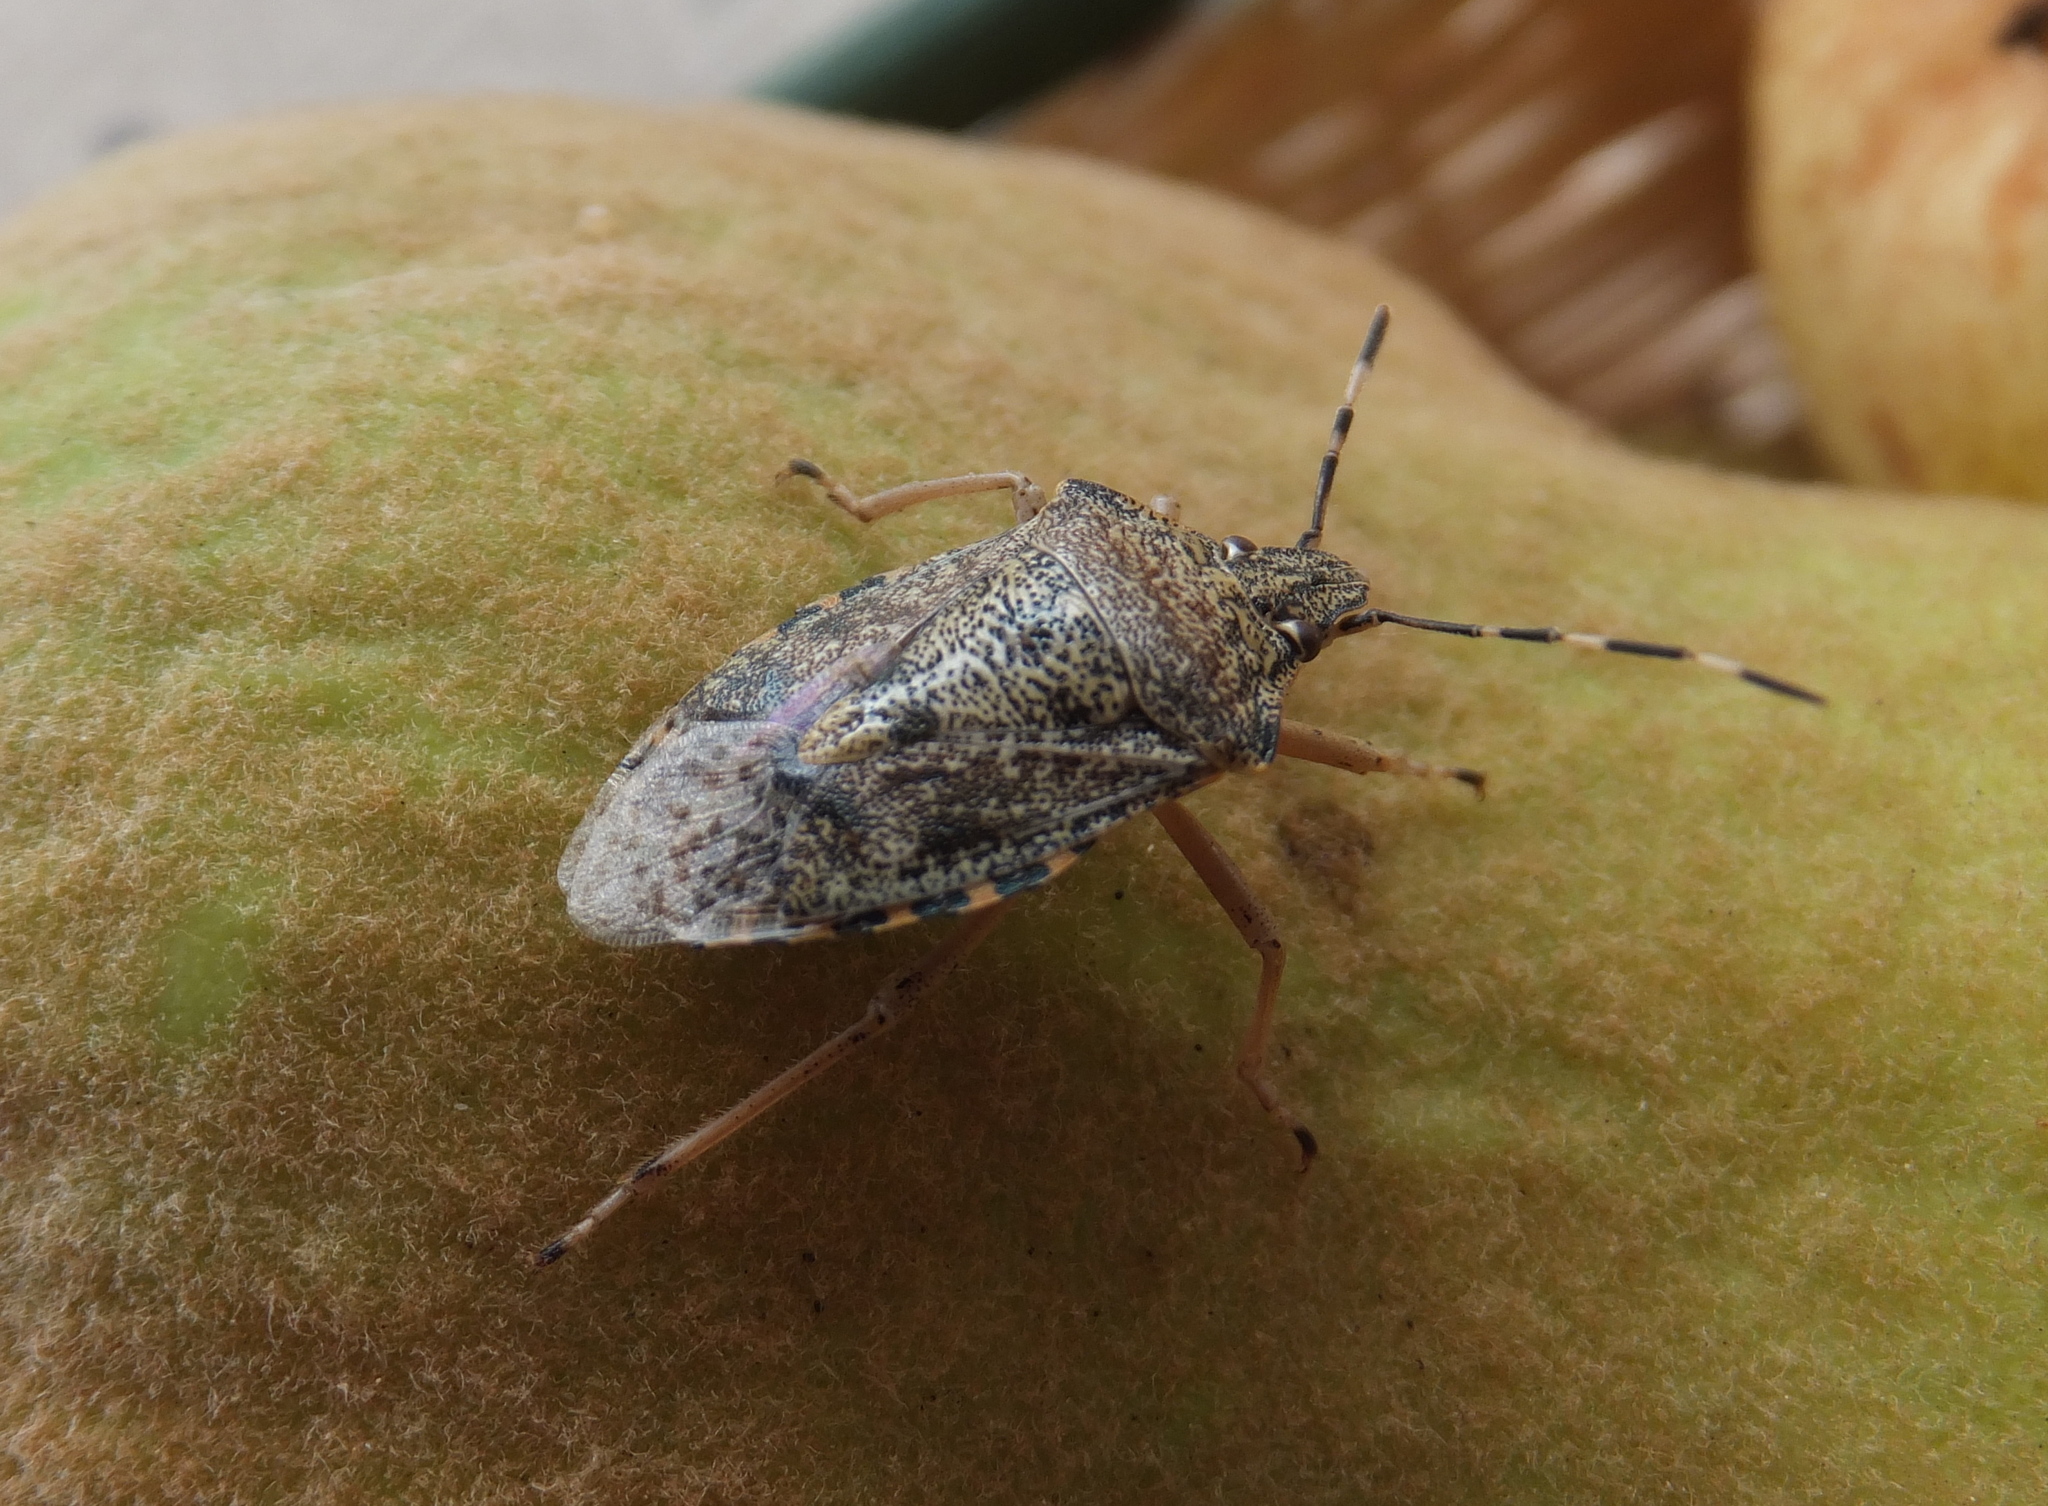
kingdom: Animalia
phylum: Arthropoda
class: Insecta
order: Hemiptera
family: Pentatomidae
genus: Rhaphigaster
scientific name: Rhaphigaster nebulosa
